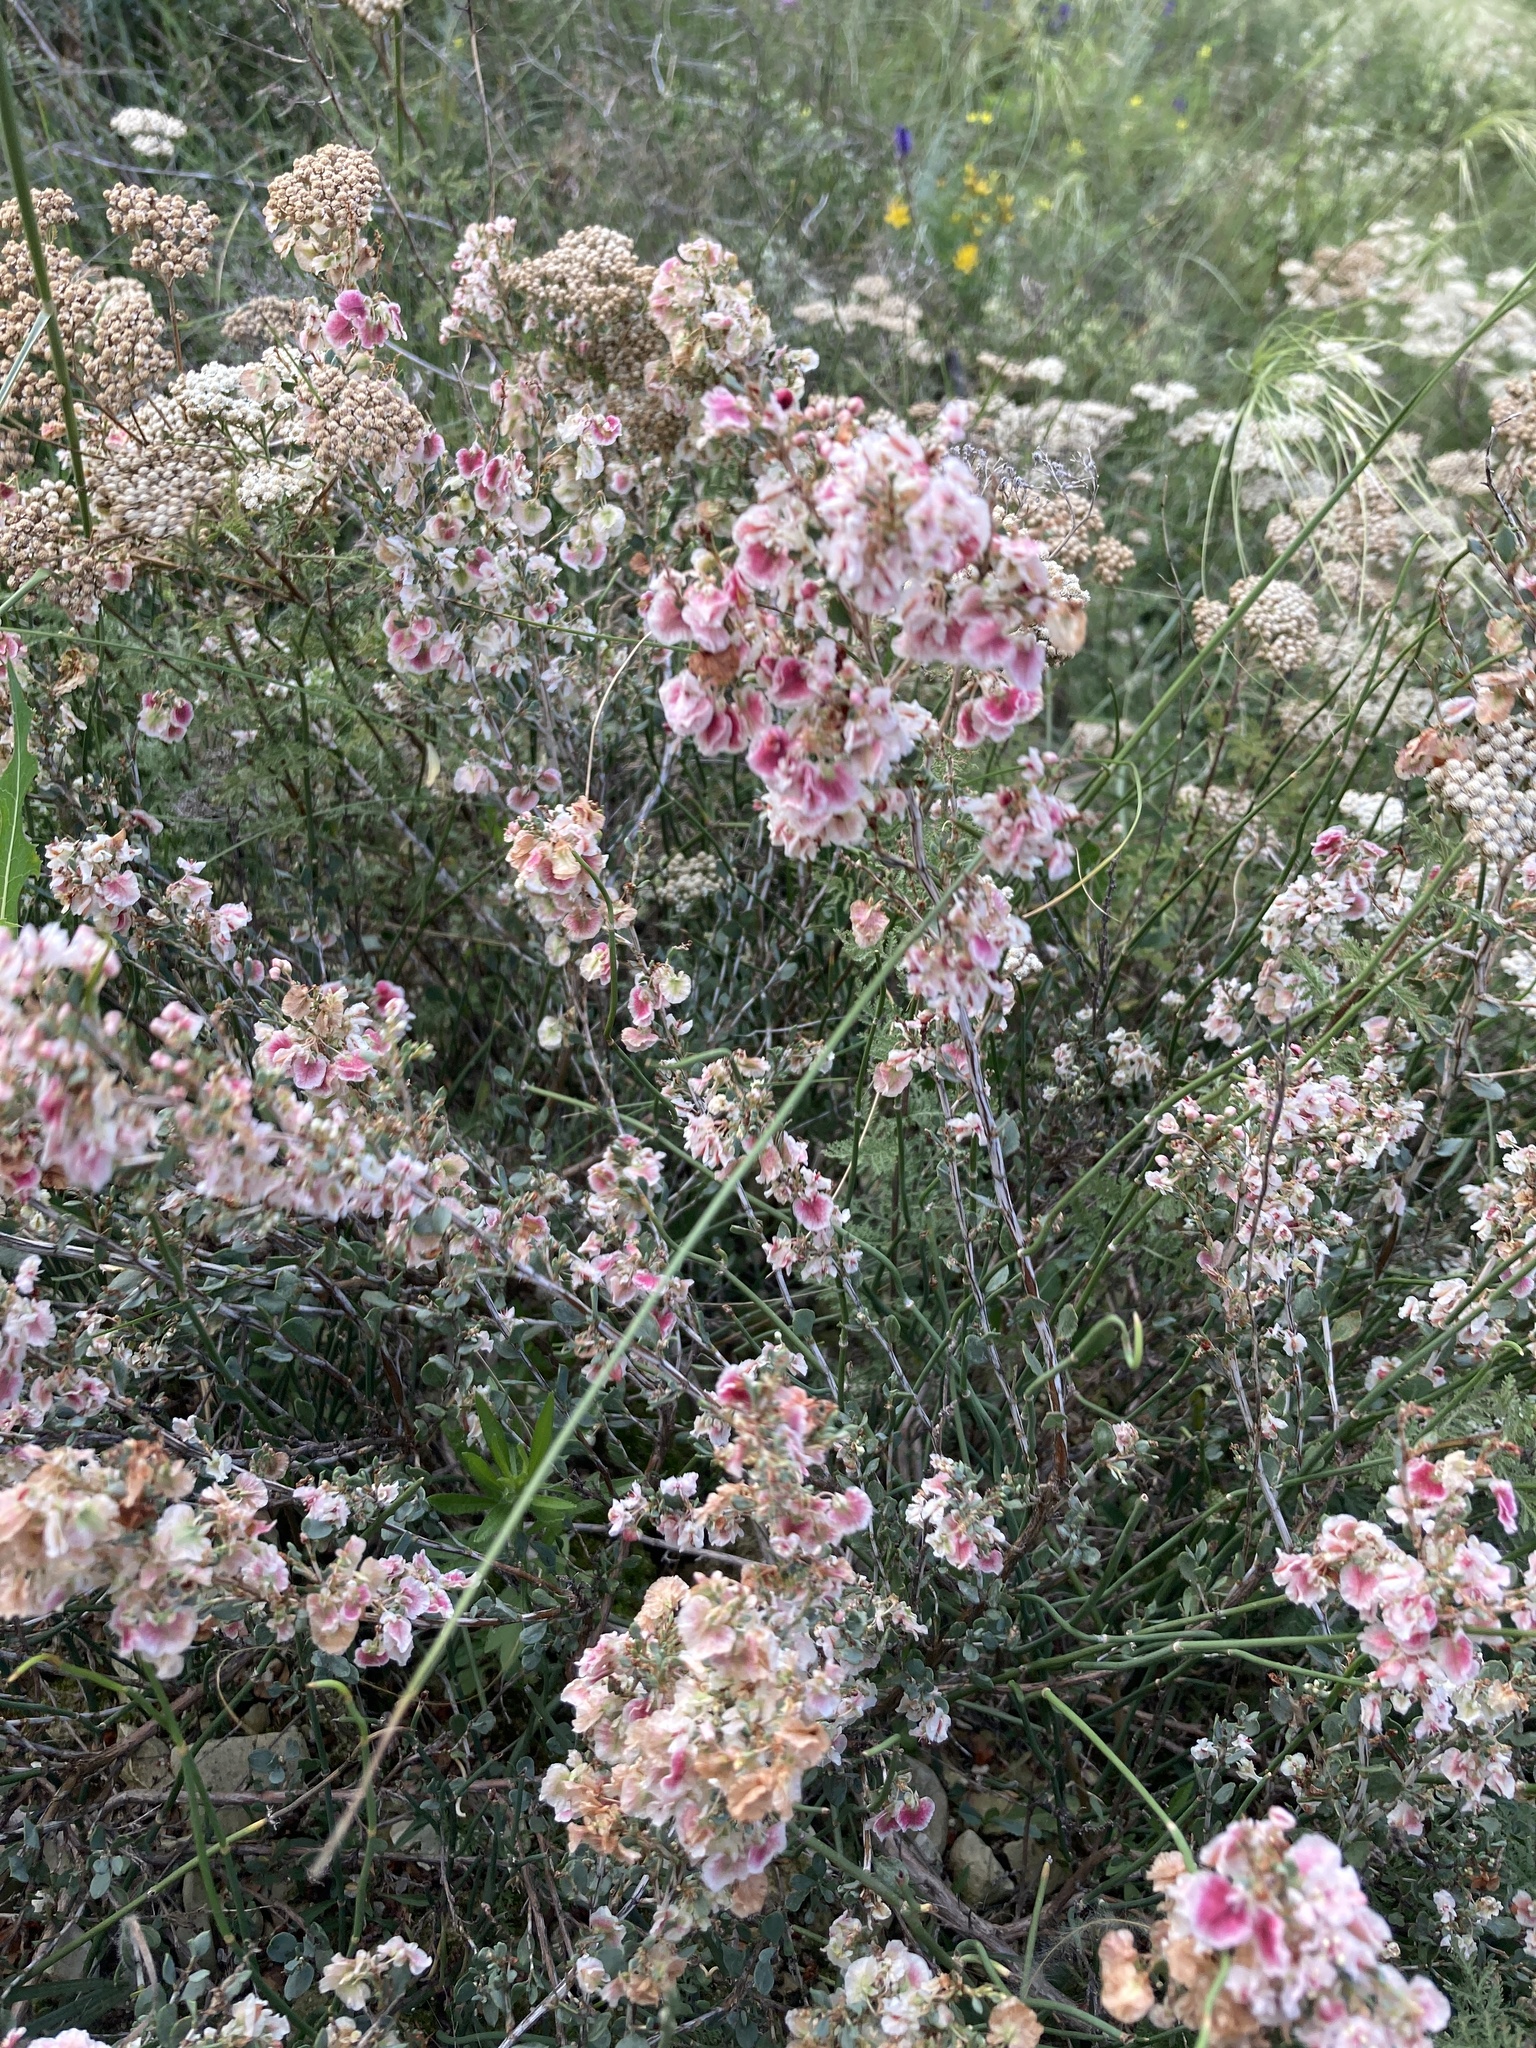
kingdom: Plantae
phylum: Tracheophyta
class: Magnoliopsida
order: Caryophyllales
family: Polygonaceae
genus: Atraphaxis
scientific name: Atraphaxis replicata
